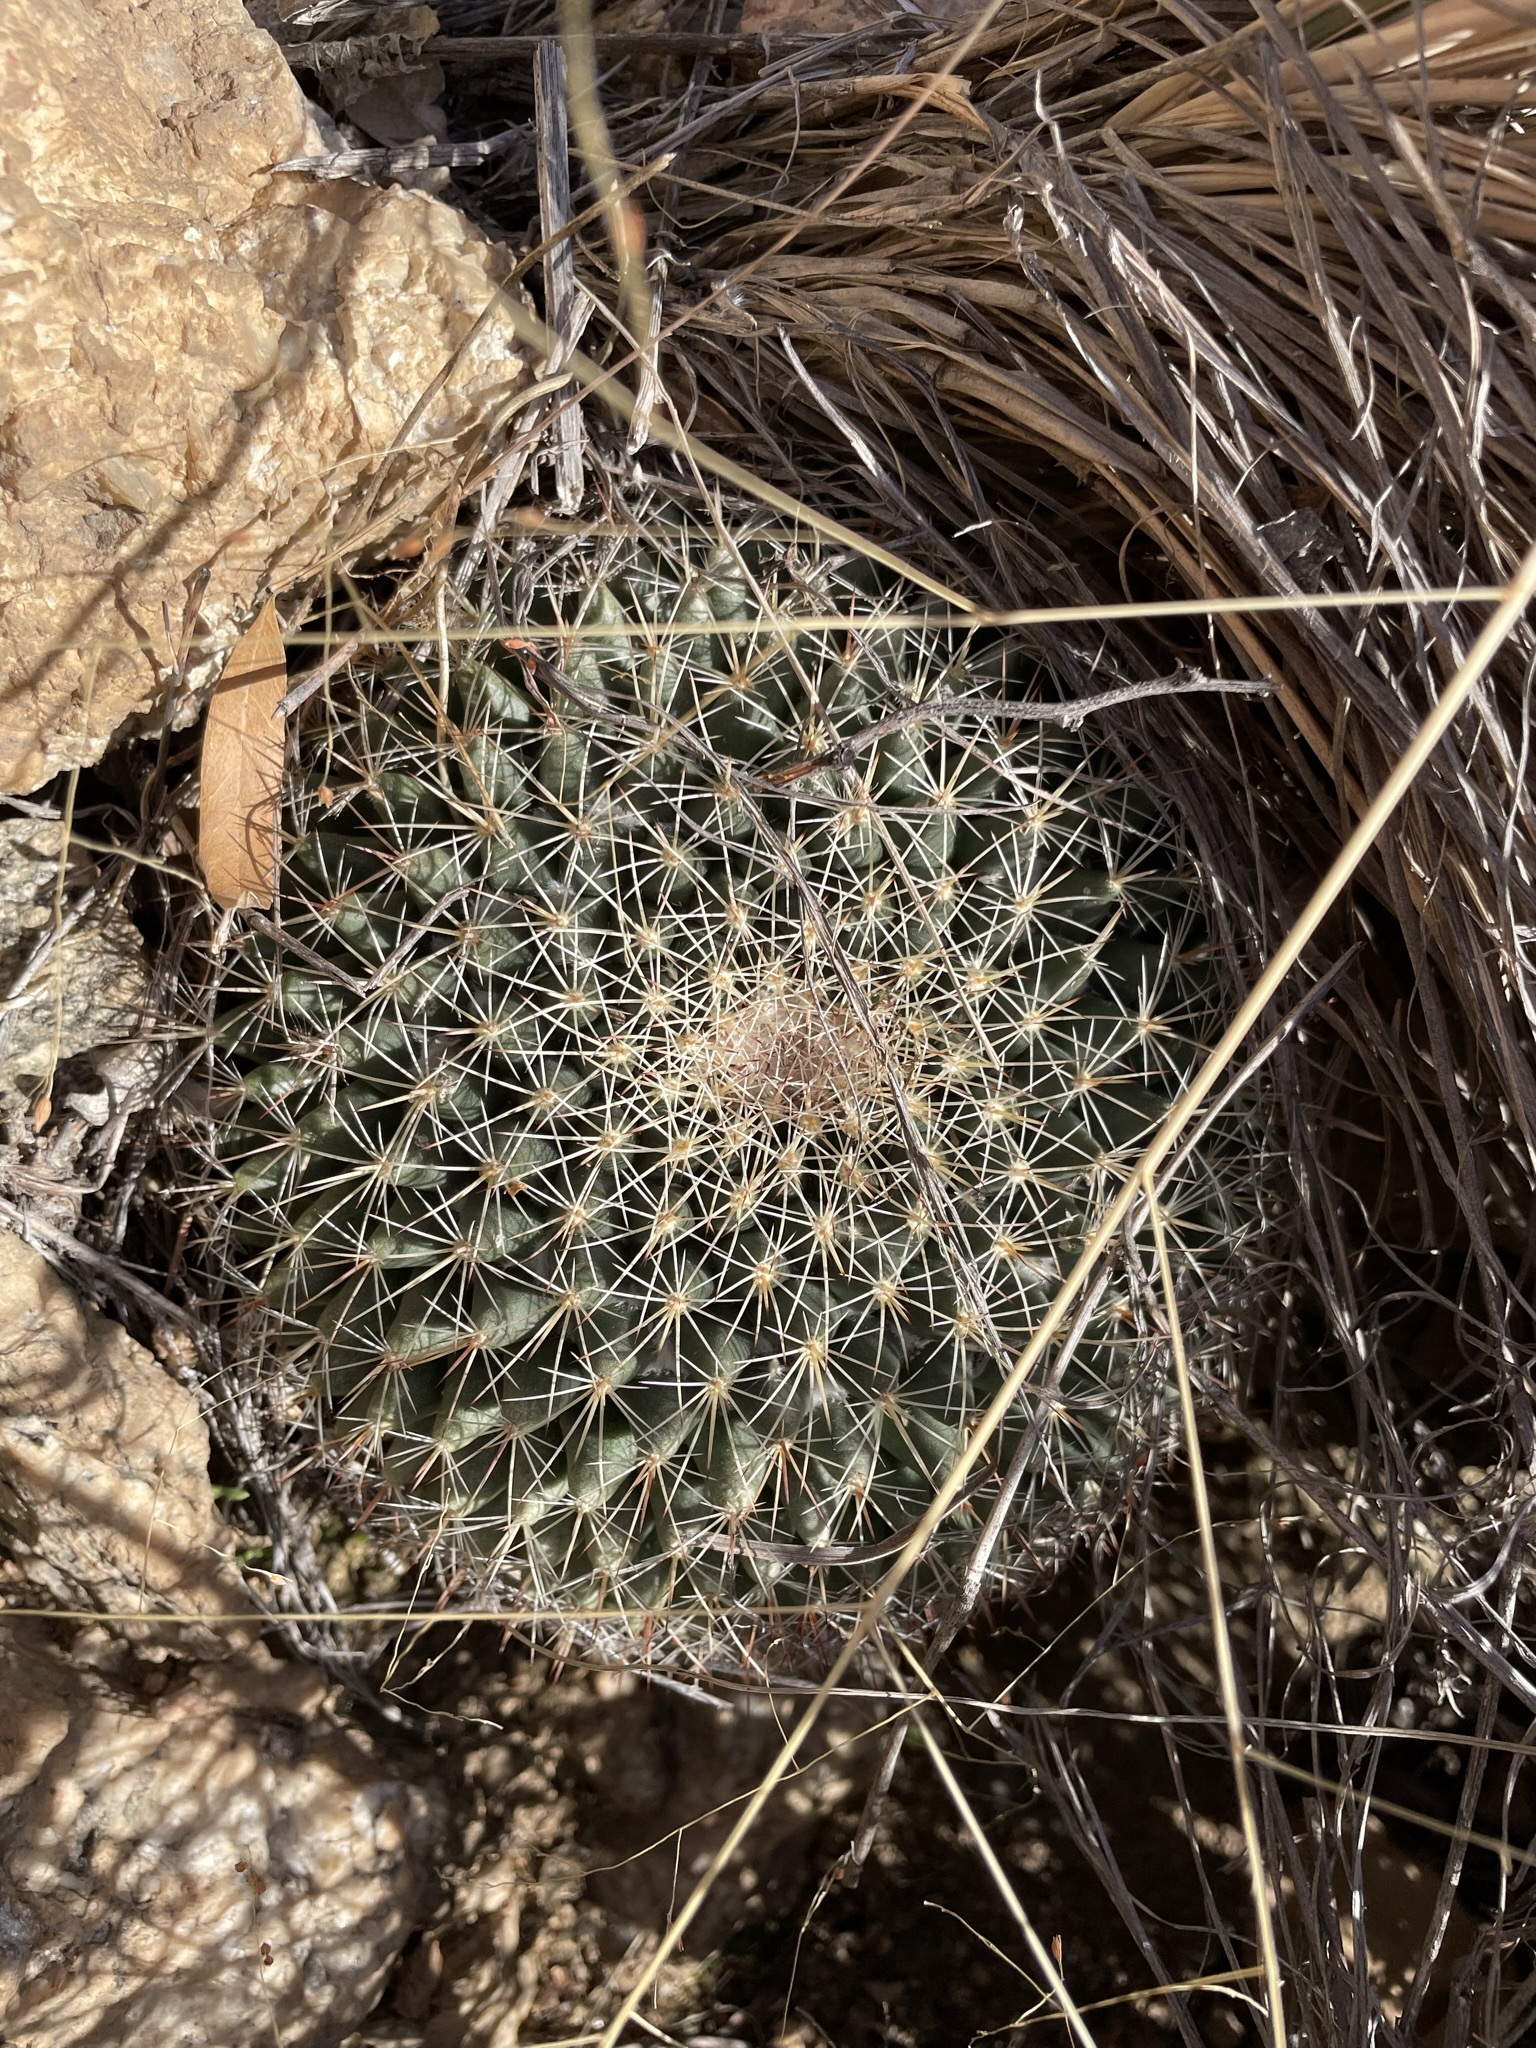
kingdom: Plantae
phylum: Tracheophyta
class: Magnoliopsida
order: Caryophyllales
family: Cactaceae
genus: Mammillaria
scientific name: Mammillaria heyderi
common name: Little nipple cactus
